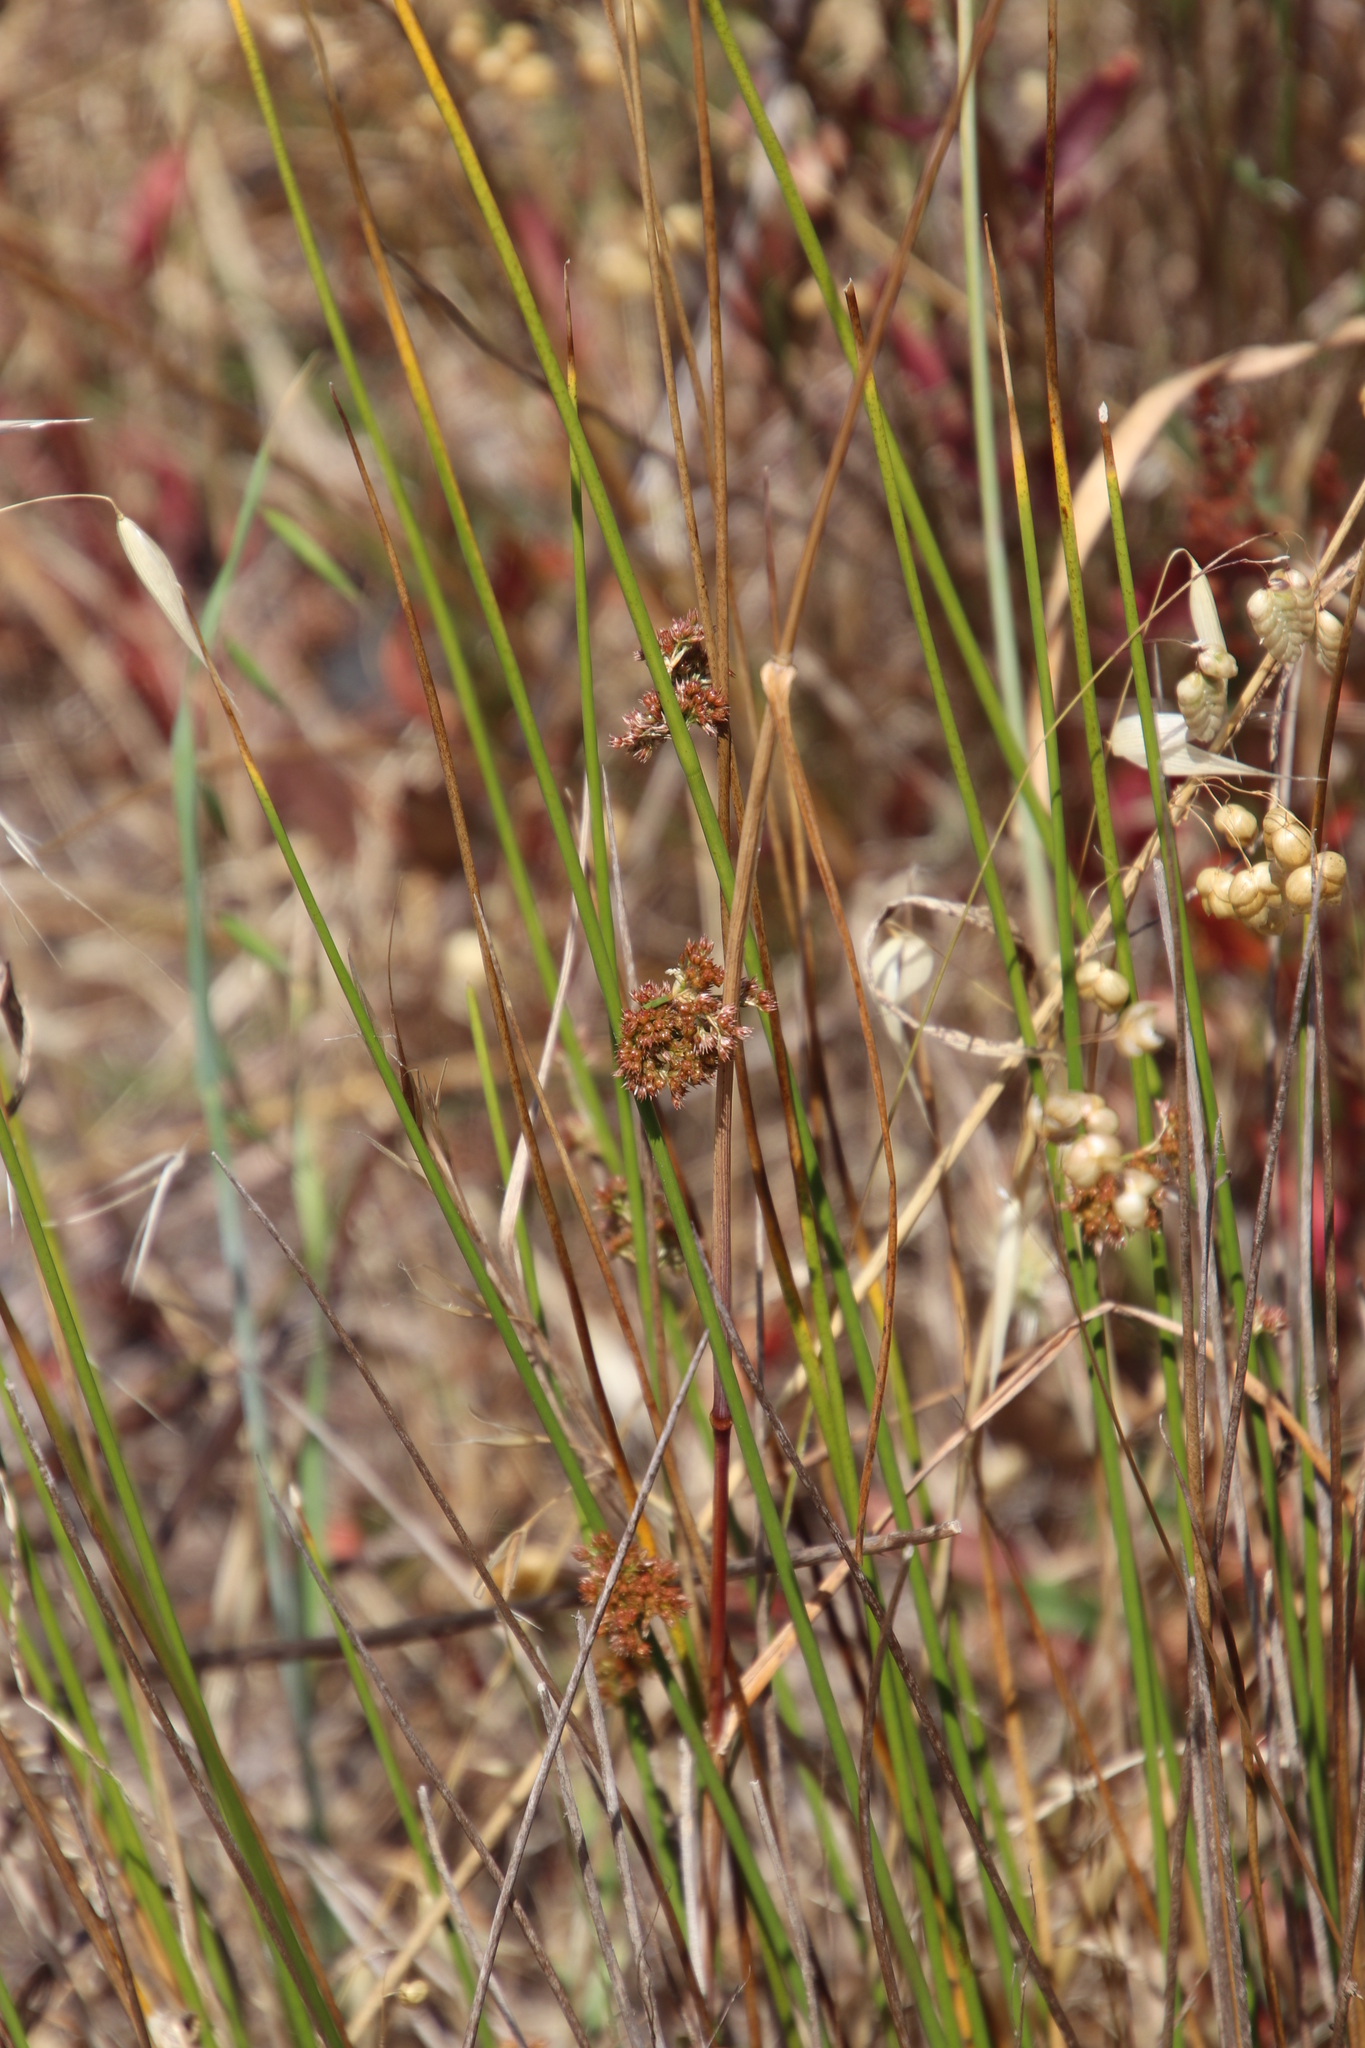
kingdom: Plantae
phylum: Tracheophyta
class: Liliopsida
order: Poales
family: Juncaceae
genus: Juncus
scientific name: Juncus effusus
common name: Soft rush
